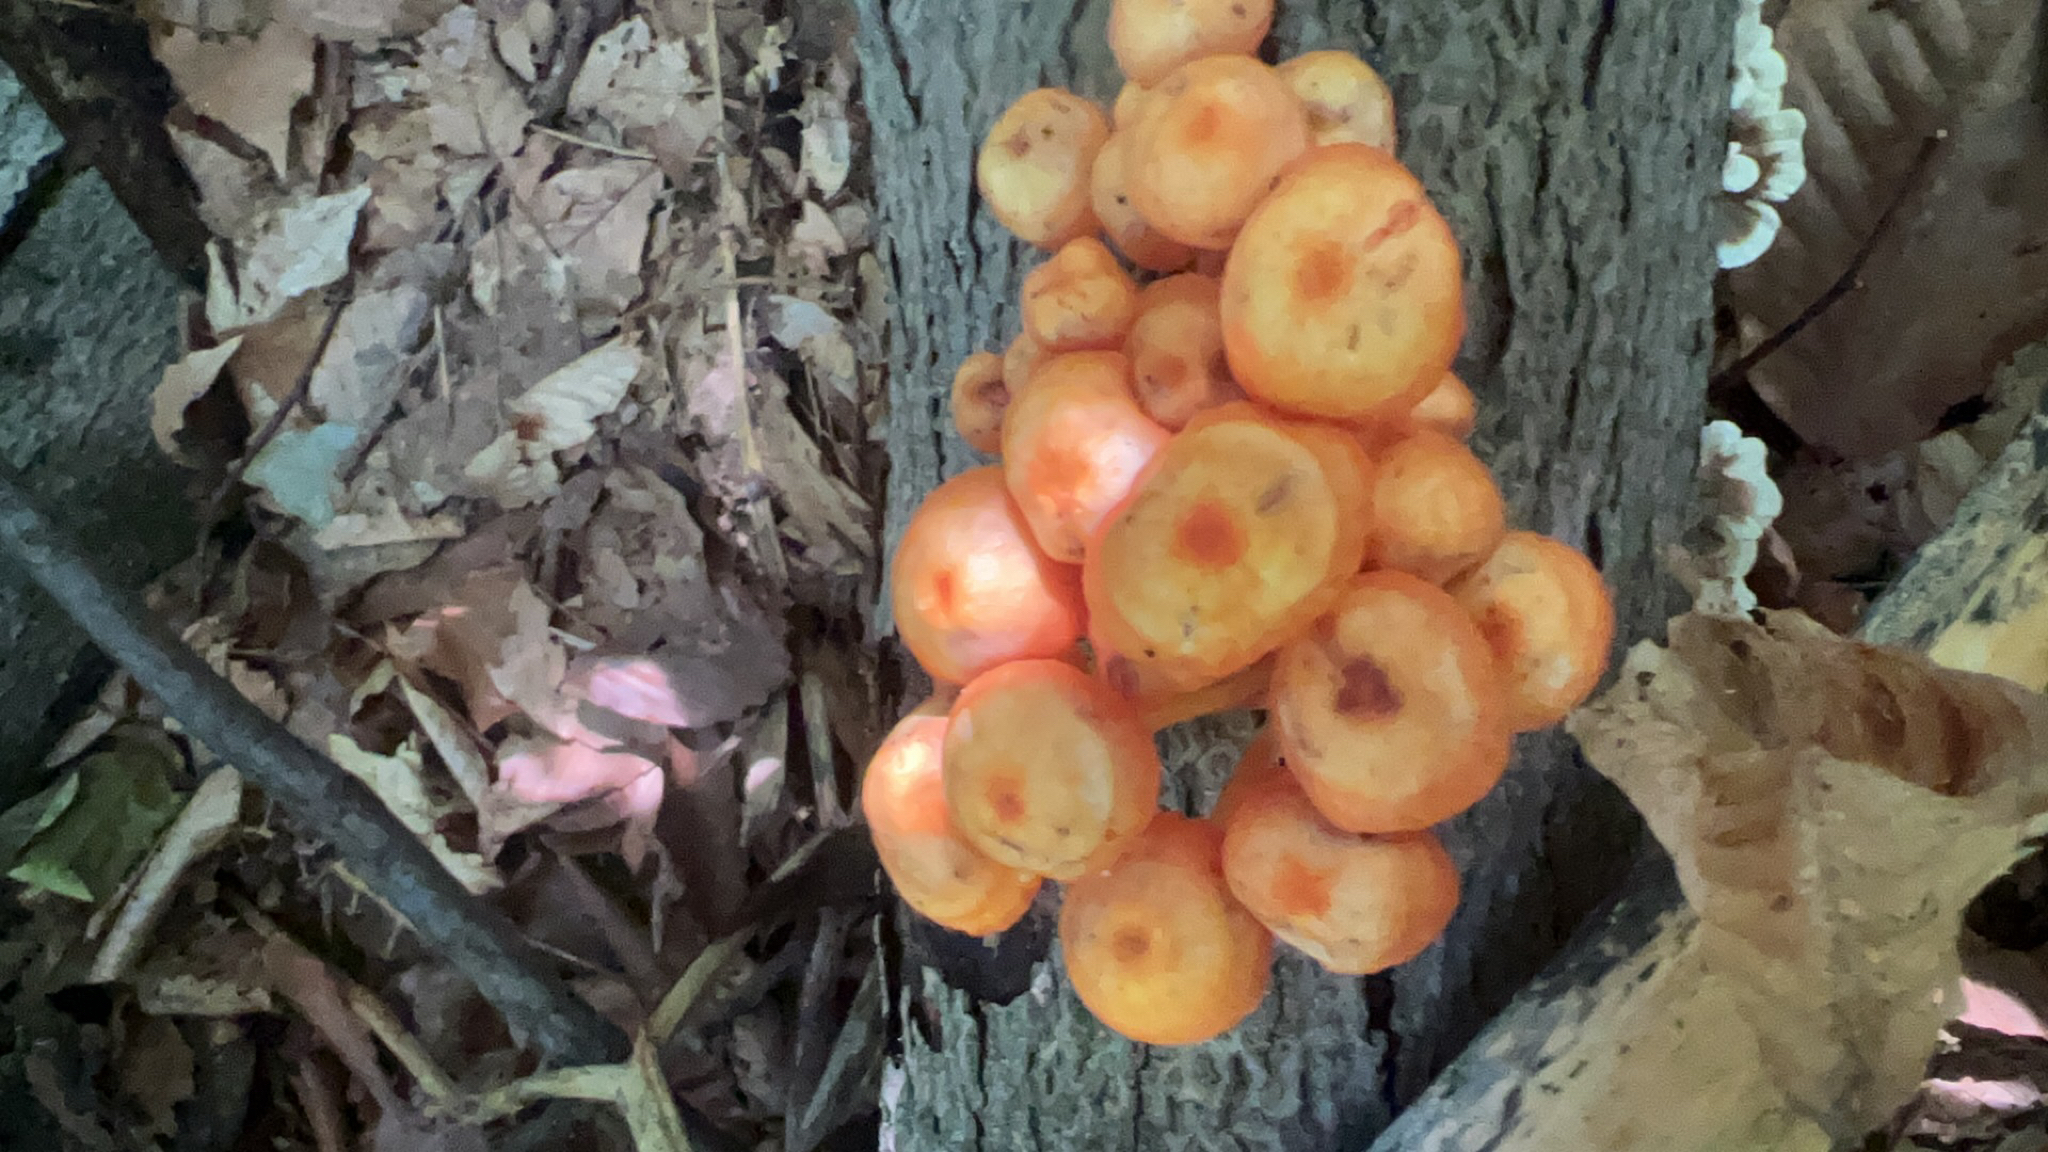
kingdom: Fungi
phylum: Basidiomycota
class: Agaricomycetes
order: Agaricales
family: Mycenaceae
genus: Mycena
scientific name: Mycena leaiana
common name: Orange mycena
